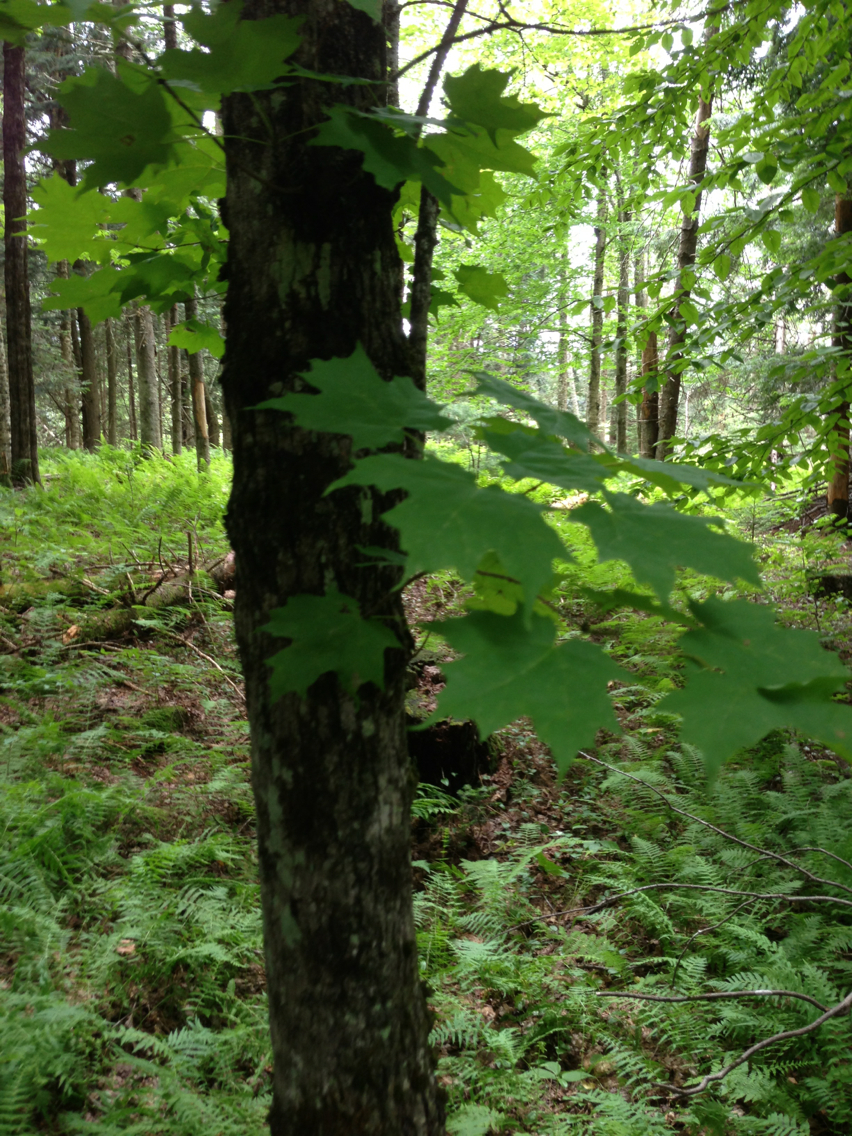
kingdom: Plantae
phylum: Tracheophyta
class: Magnoliopsida
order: Sapindales
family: Sapindaceae
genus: Acer
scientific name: Acer saccharum
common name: Sugar maple
